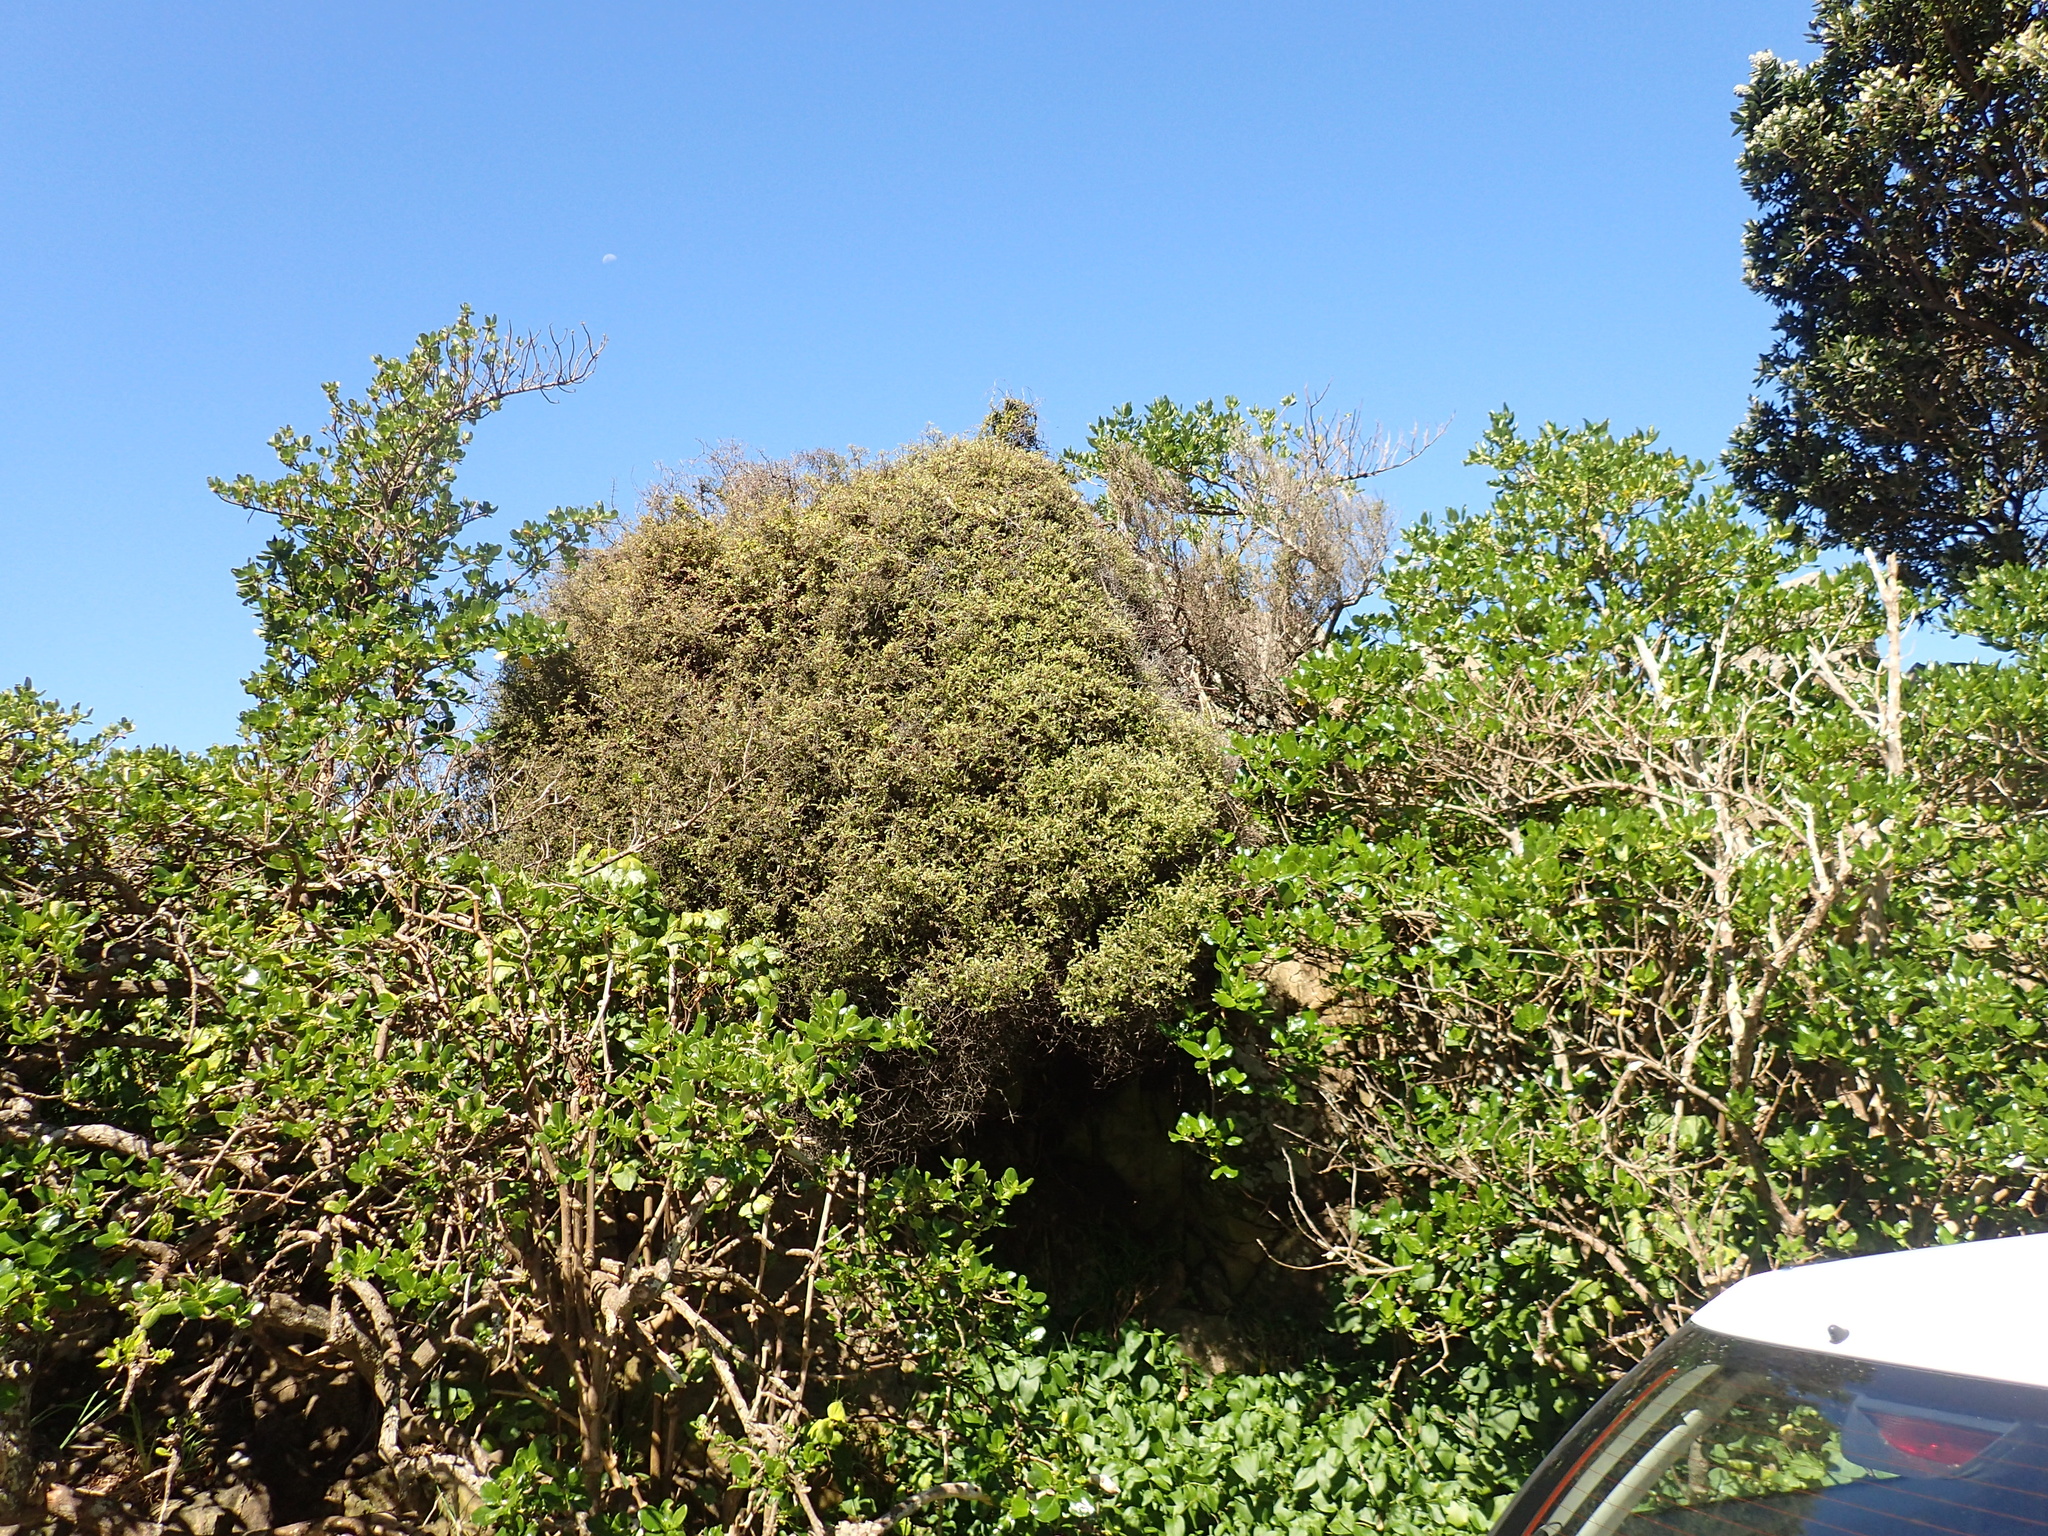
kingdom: Plantae
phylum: Tracheophyta
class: Magnoliopsida
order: Ericales
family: Ericaceae
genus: Leptecophylla
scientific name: Leptecophylla juniperina
